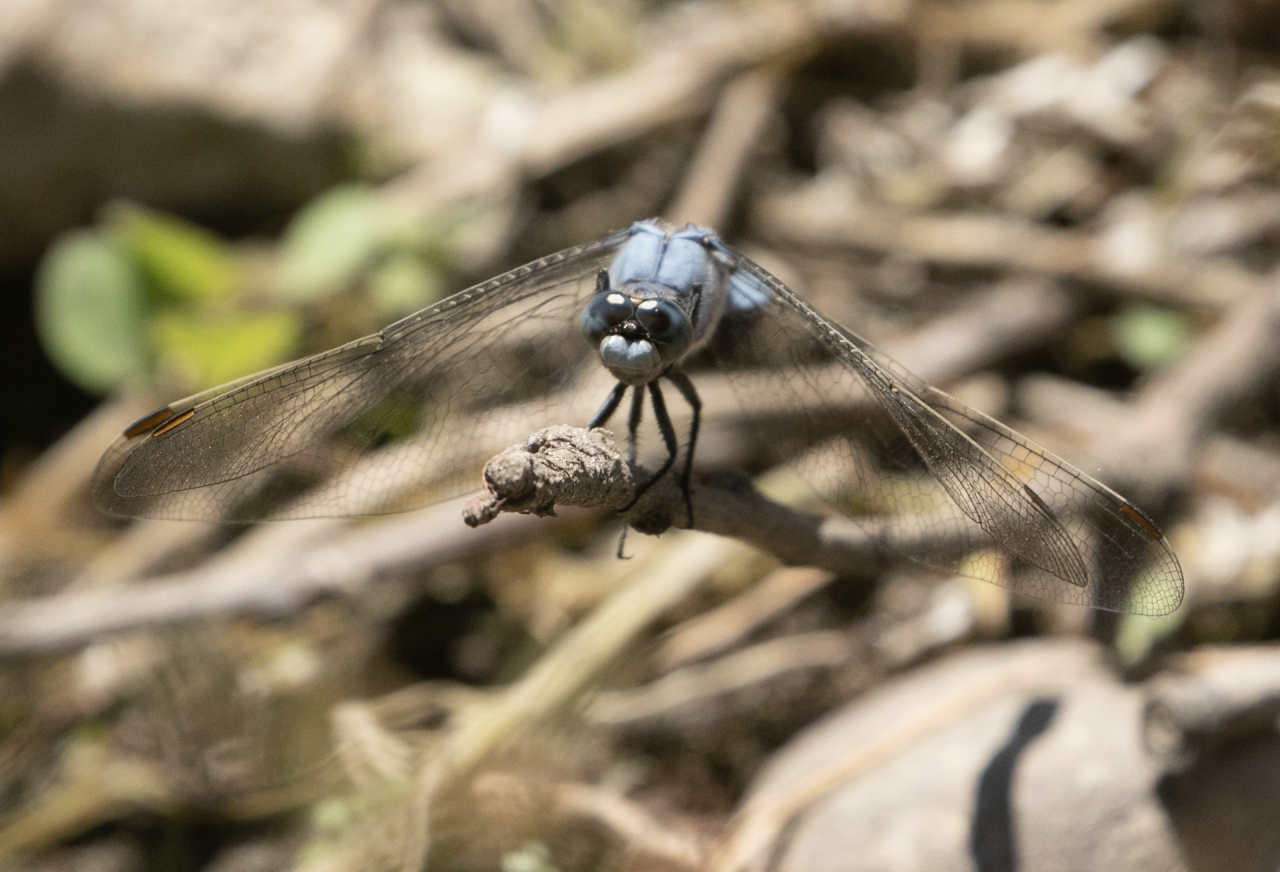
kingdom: Animalia
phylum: Arthropoda
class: Insecta
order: Odonata
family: Libellulidae
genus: Orthetrum
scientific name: Orthetrum brunneum
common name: Southern skimmer
